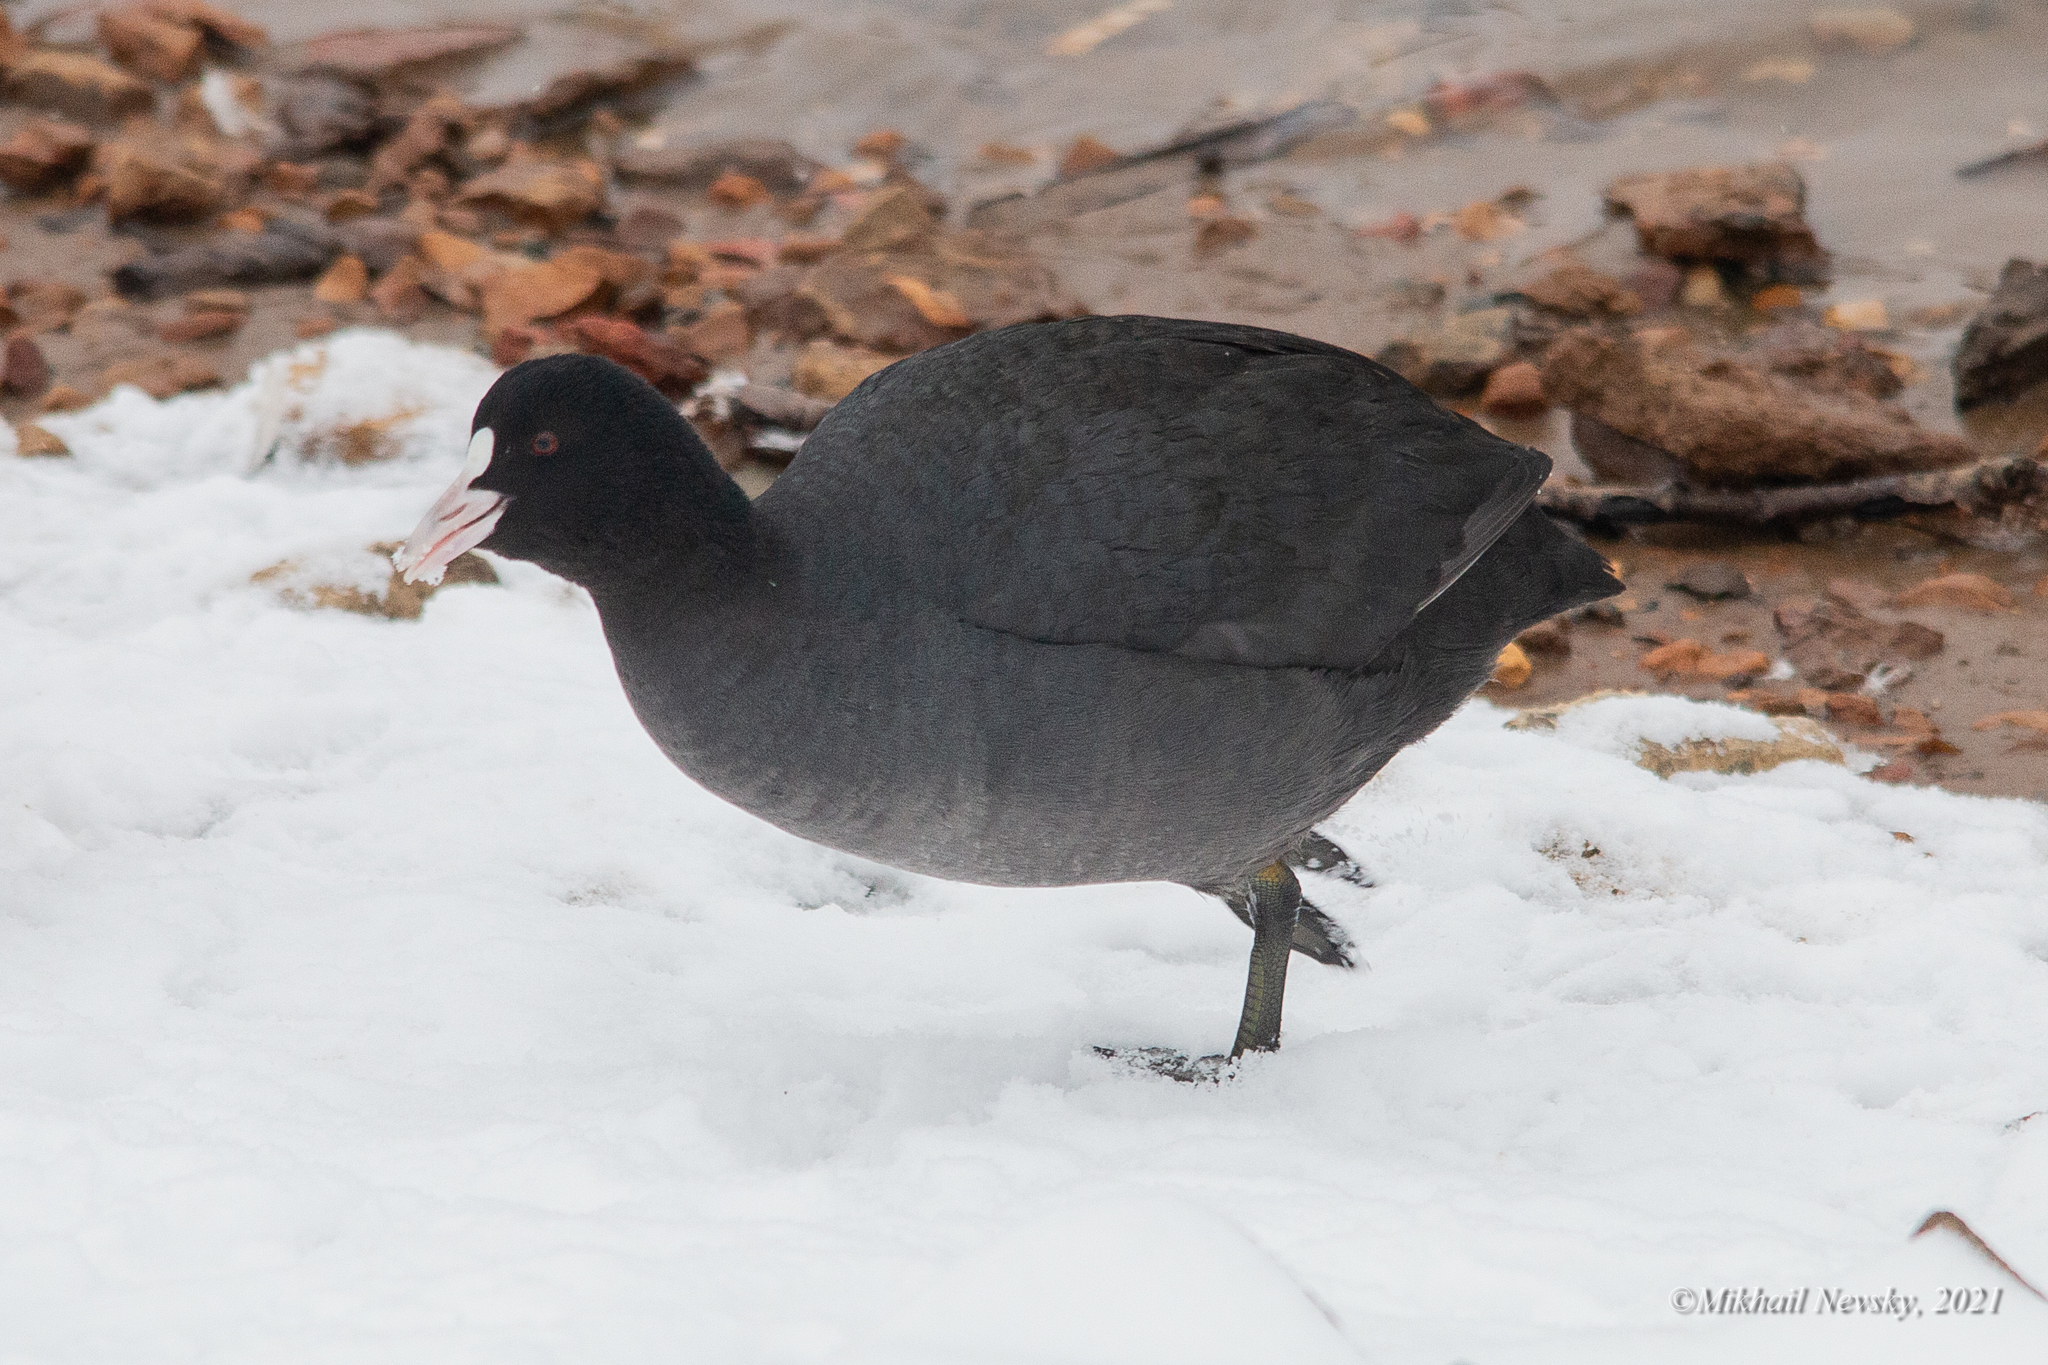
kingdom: Animalia
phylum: Chordata
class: Aves
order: Gruiformes
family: Rallidae
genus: Fulica
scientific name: Fulica atra
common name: Eurasian coot
